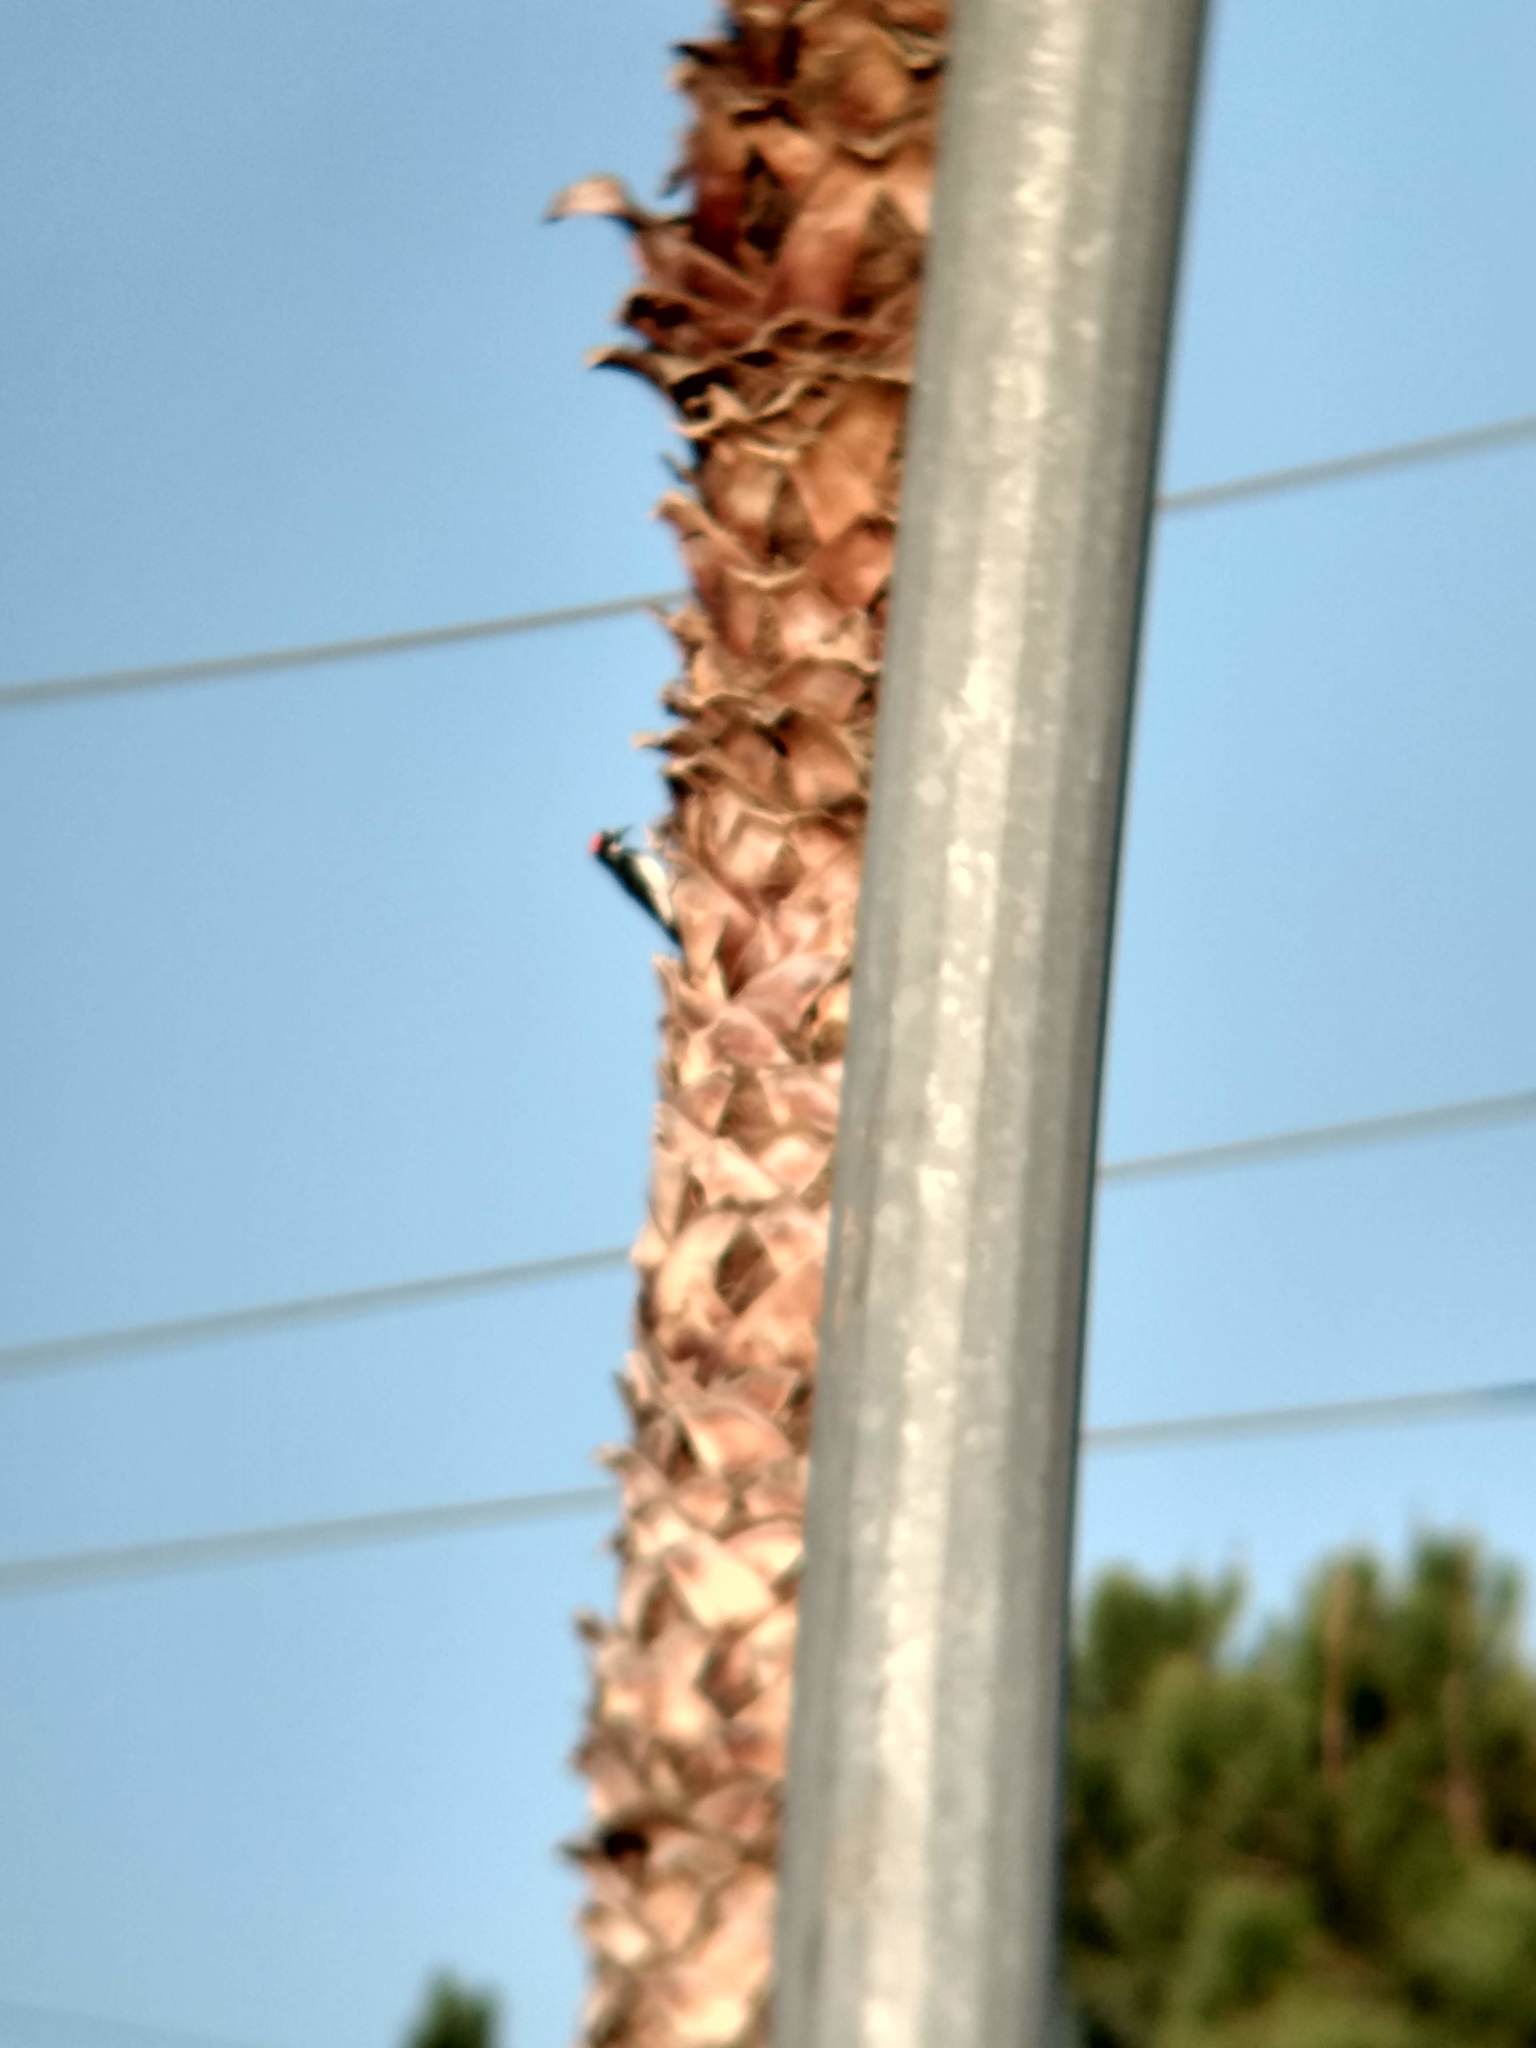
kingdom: Animalia
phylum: Chordata
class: Aves
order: Piciformes
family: Picidae
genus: Melanerpes
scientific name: Melanerpes formicivorus
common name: Acorn woodpecker
